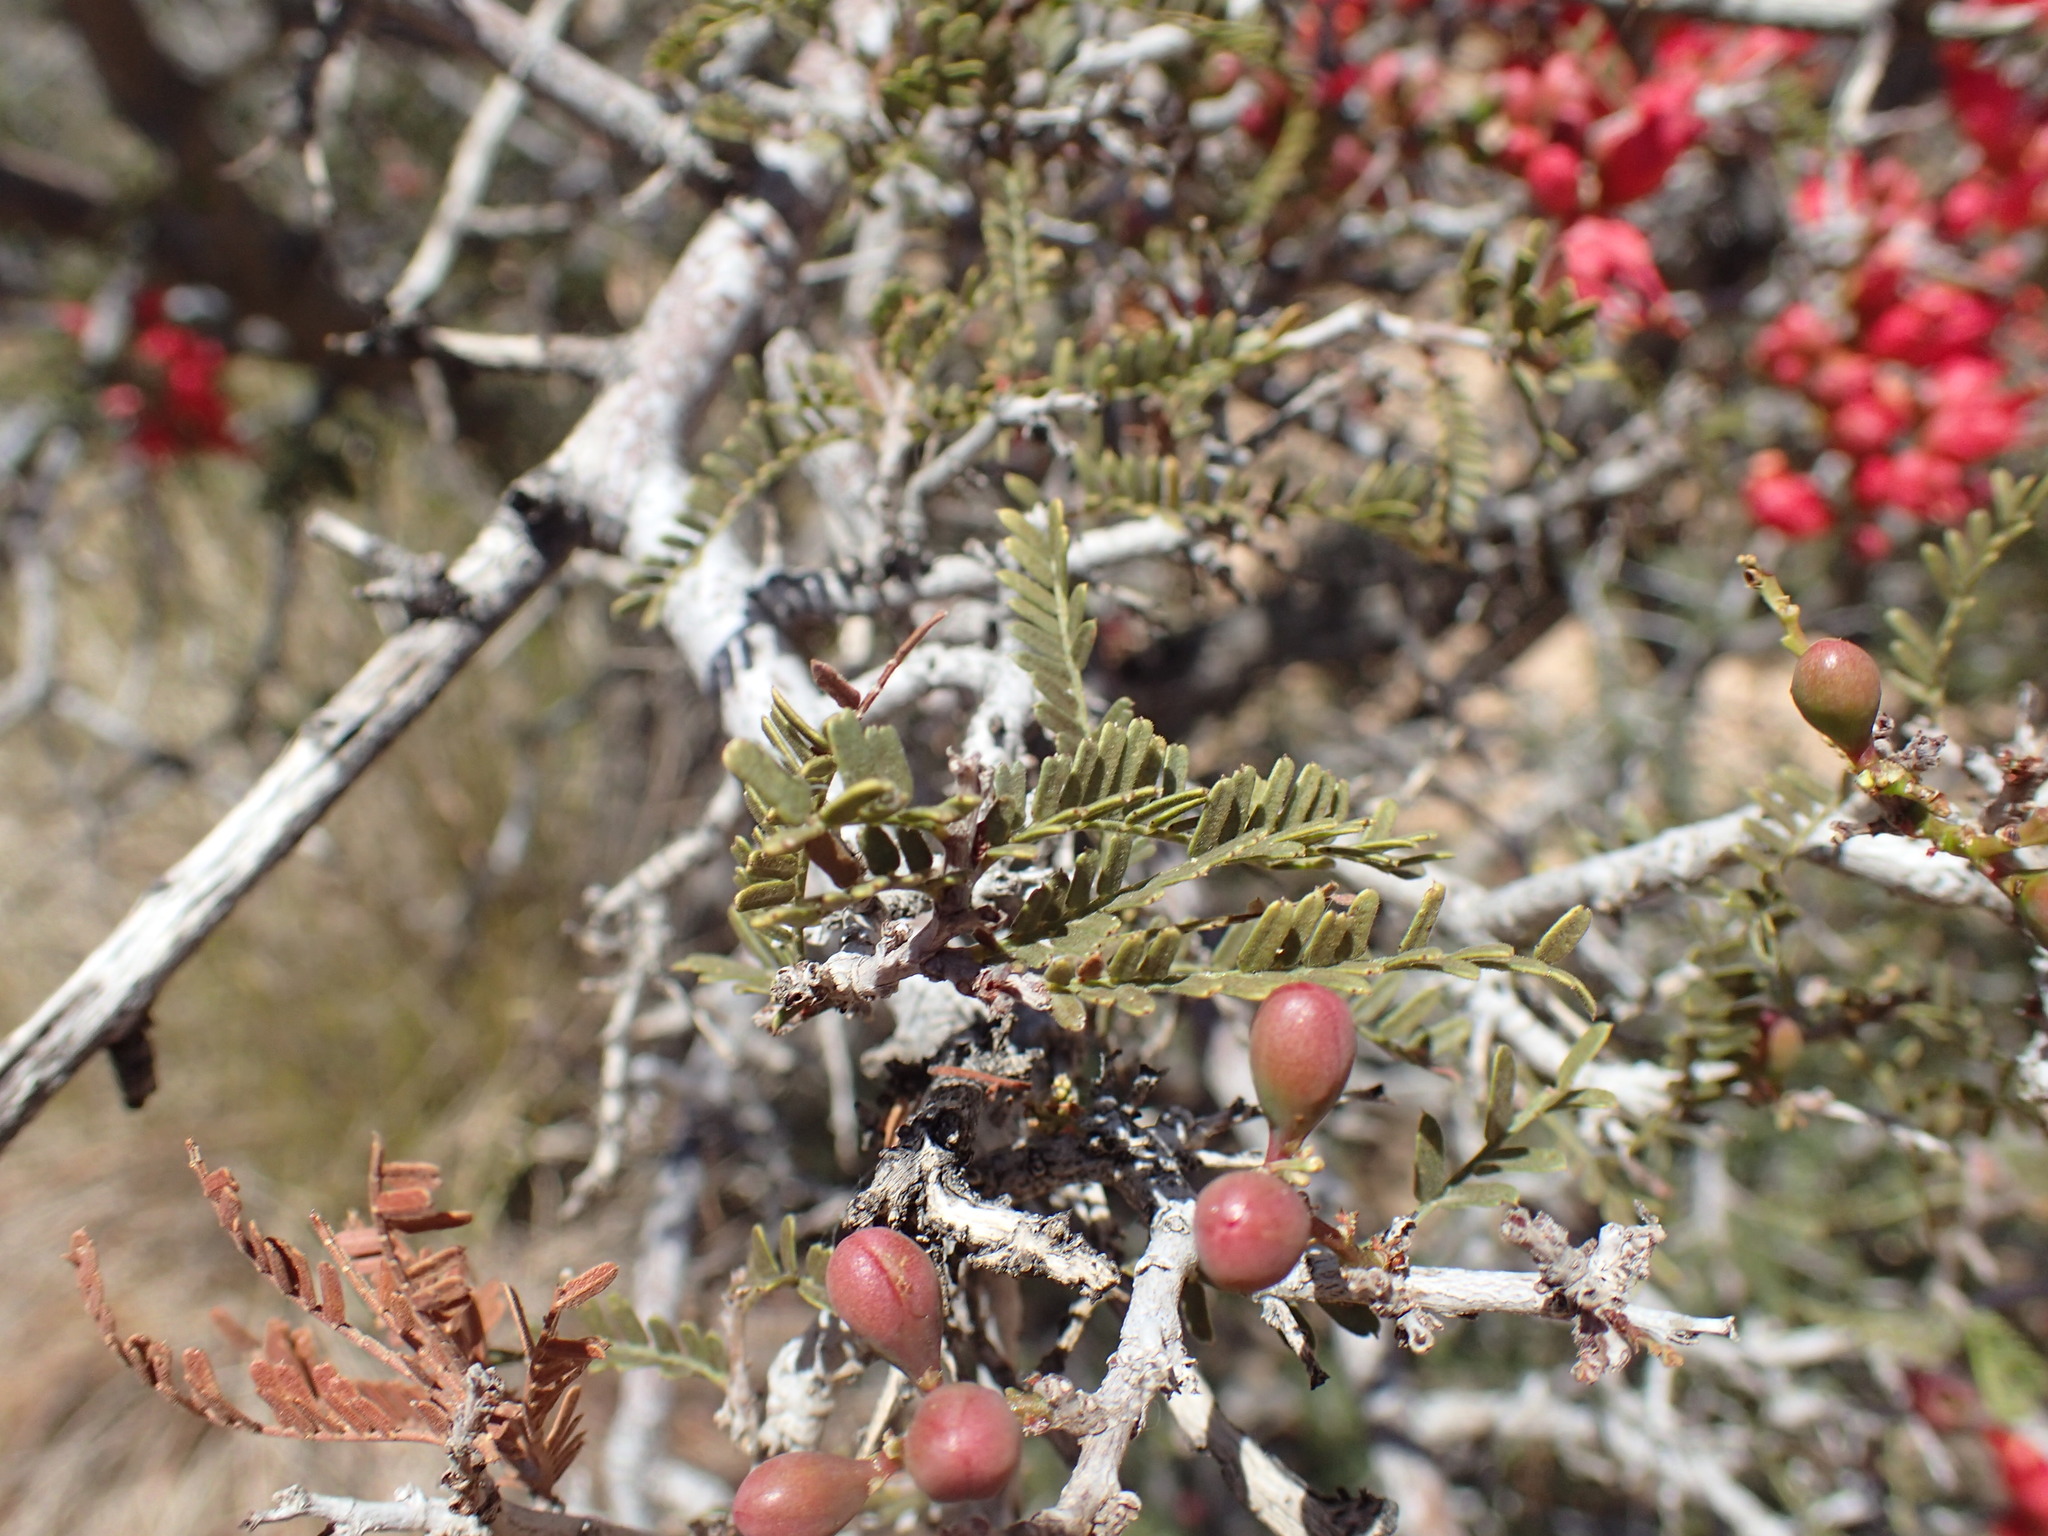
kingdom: Plantae
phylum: Tracheophyta
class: Magnoliopsida
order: Fabales
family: Fabaceae
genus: Schotia
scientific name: Schotia afra
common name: Hottentot's bean
